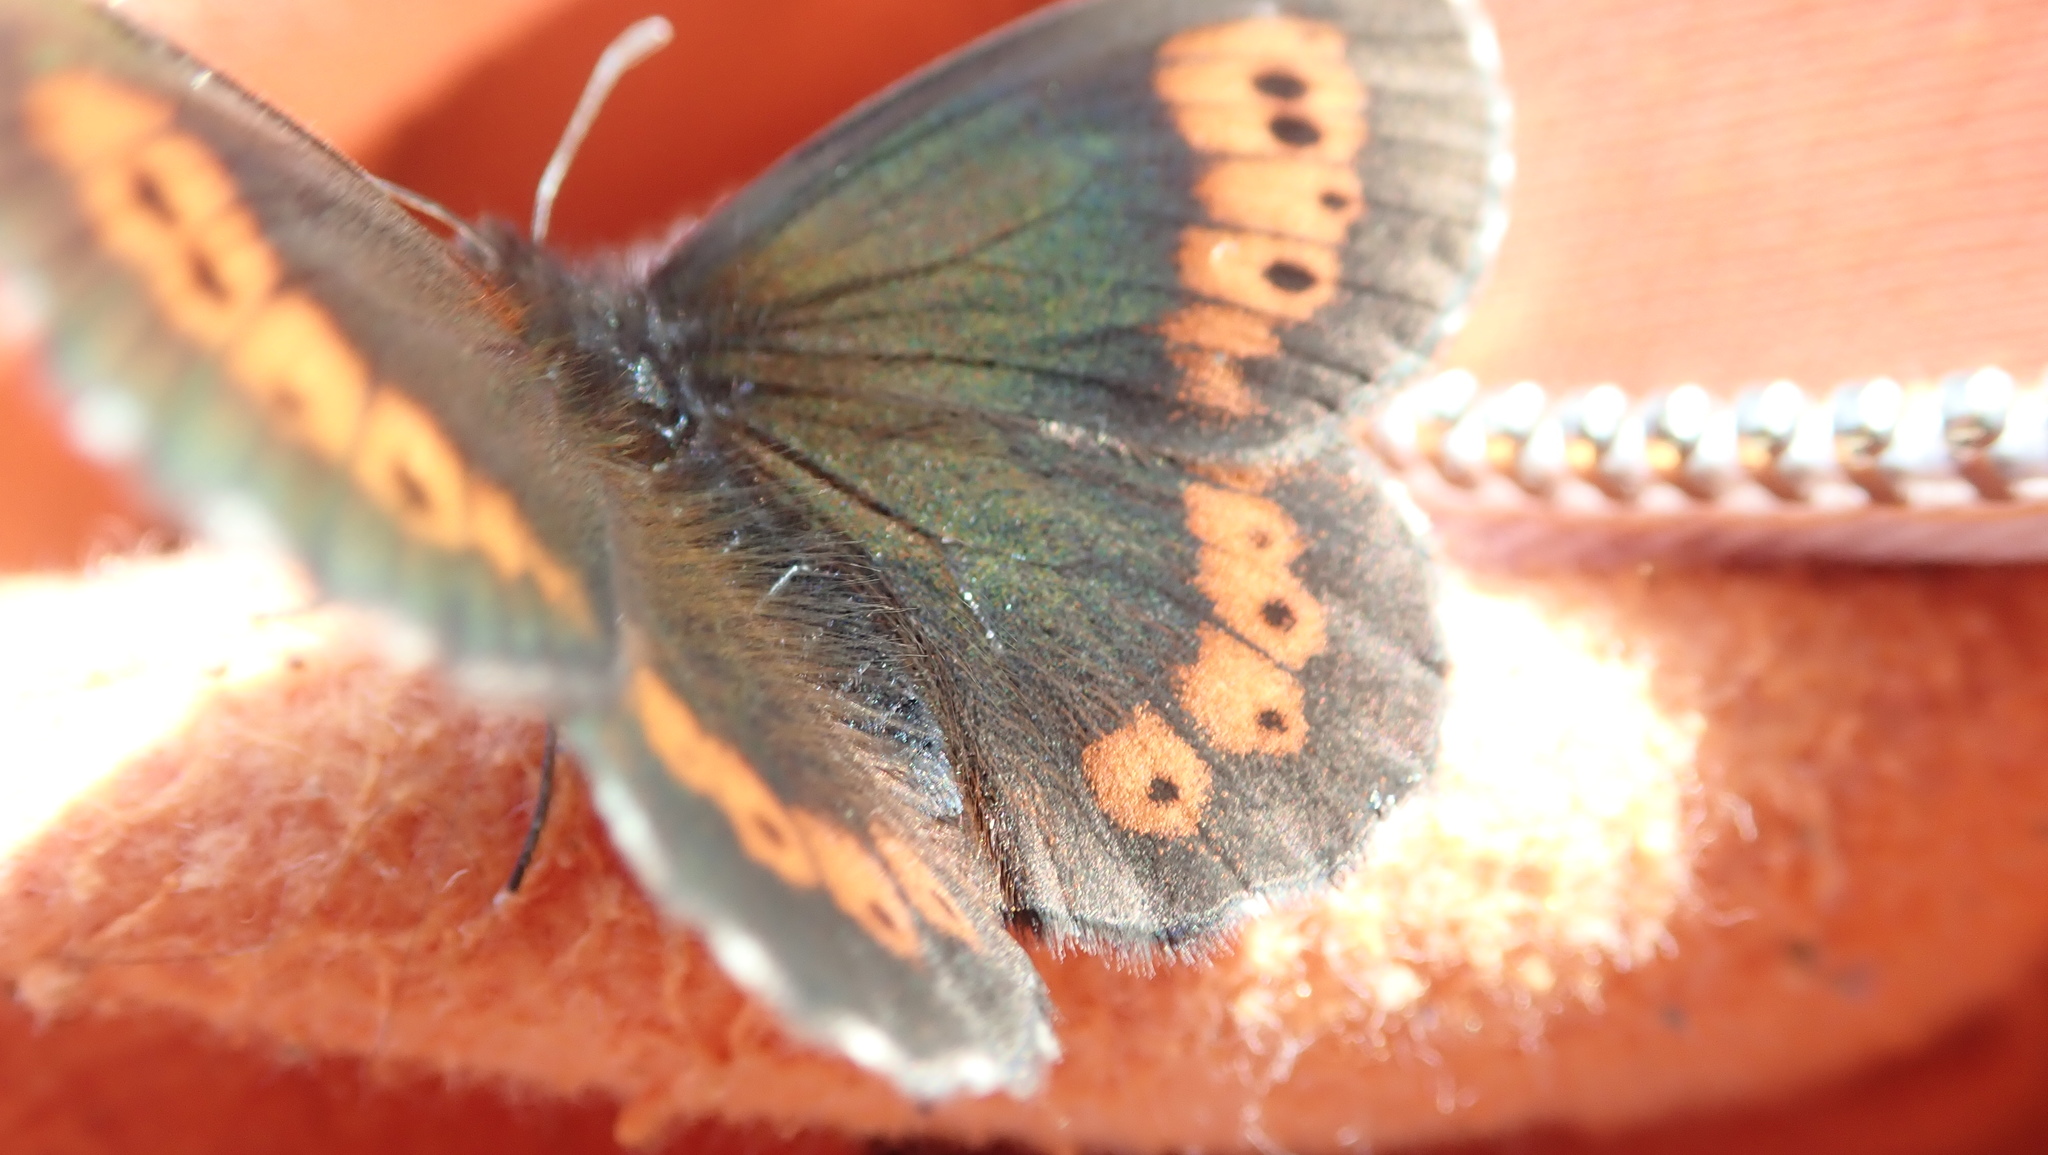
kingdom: Animalia
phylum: Arthropoda
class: Insecta
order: Lepidoptera
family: Nymphalidae
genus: Erebia
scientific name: Erebia euryale
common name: Large ringlet
